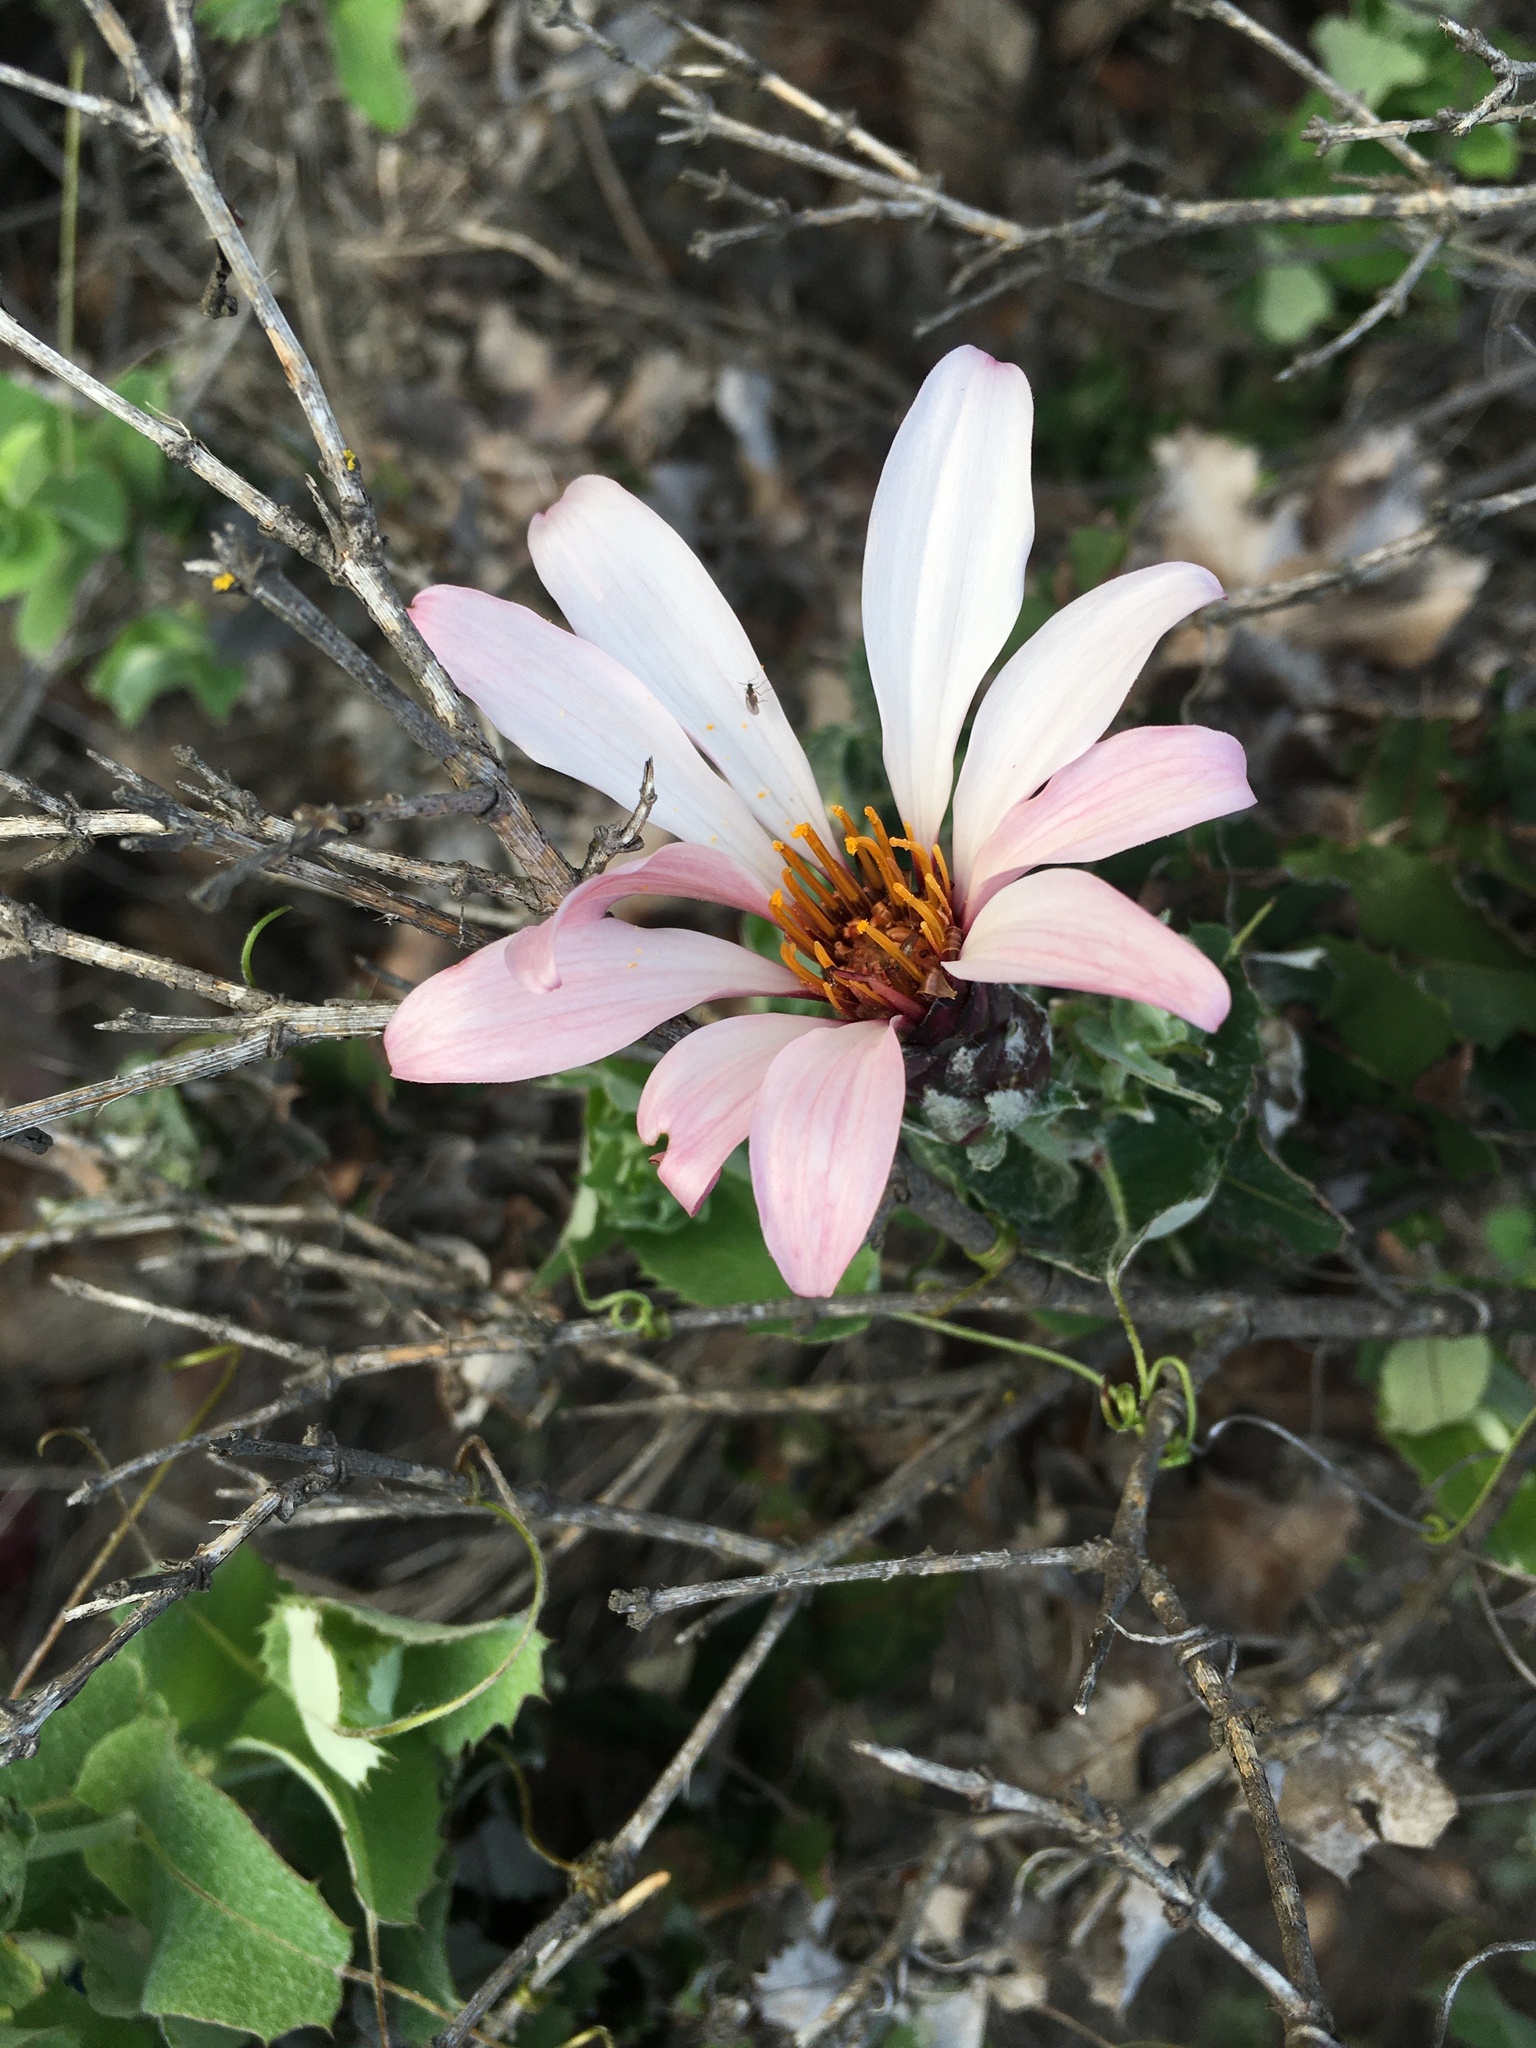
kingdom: Plantae
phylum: Tracheophyta
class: Magnoliopsida
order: Asterales
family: Asteraceae
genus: Mutisia
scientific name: Mutisia spinosa
